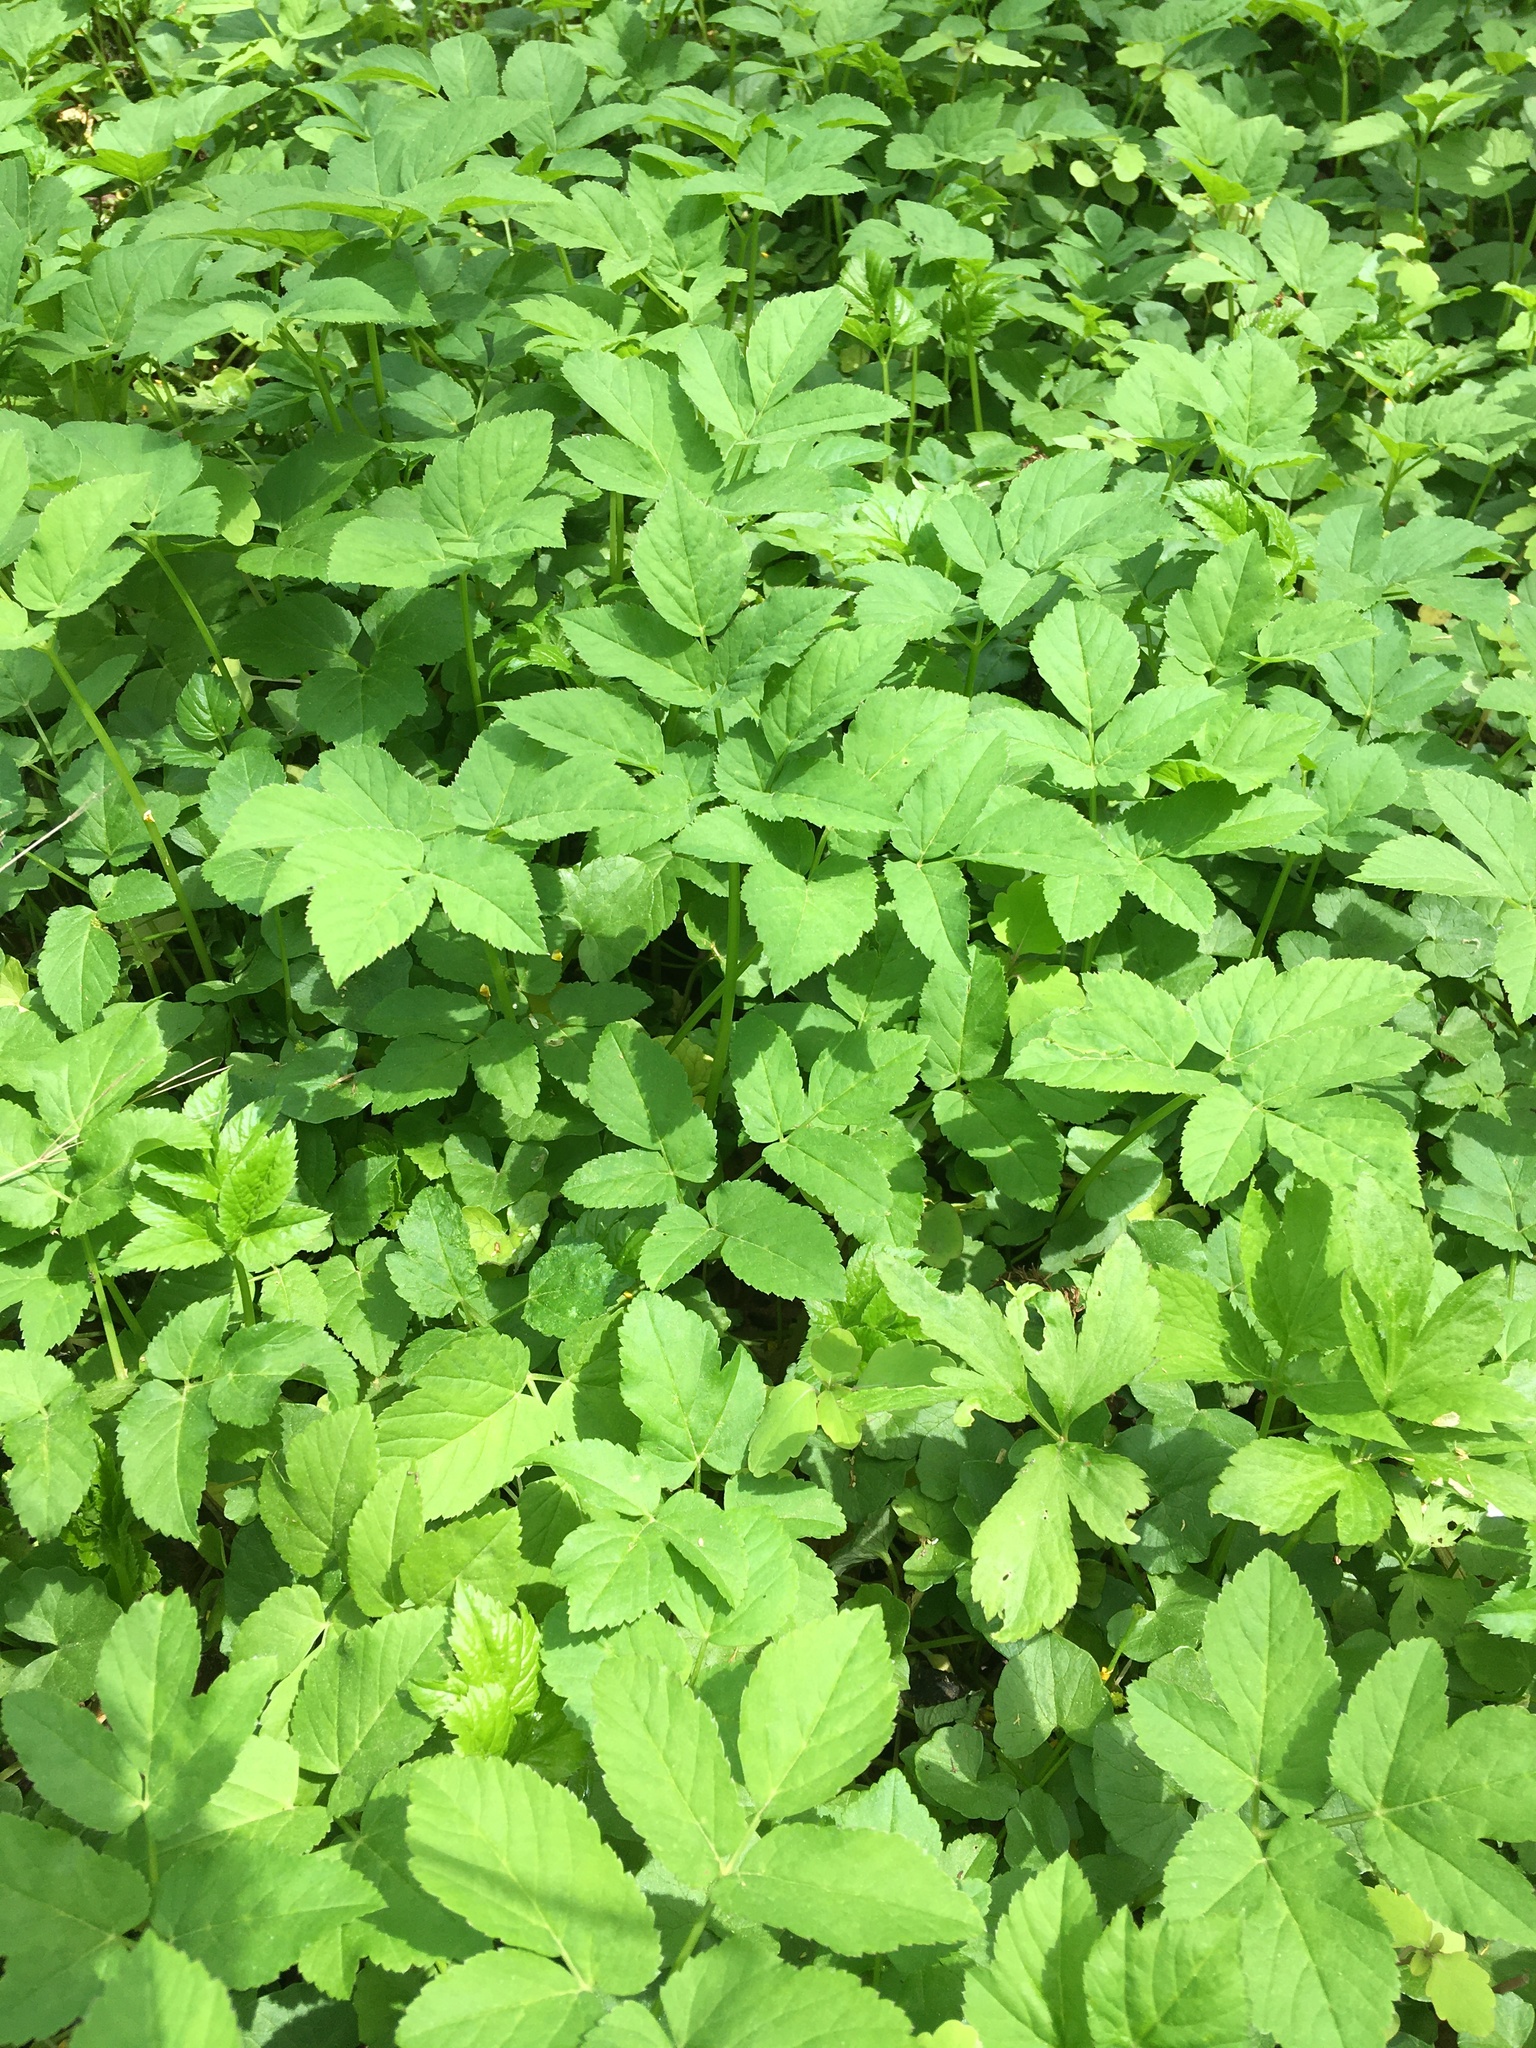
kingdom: Plantae
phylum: Tracheophyta
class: Magnoliopsida
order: Apiales
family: Apiaceae
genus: Aegopodium
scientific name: Aegopodium podagraria
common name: Ground-elder
